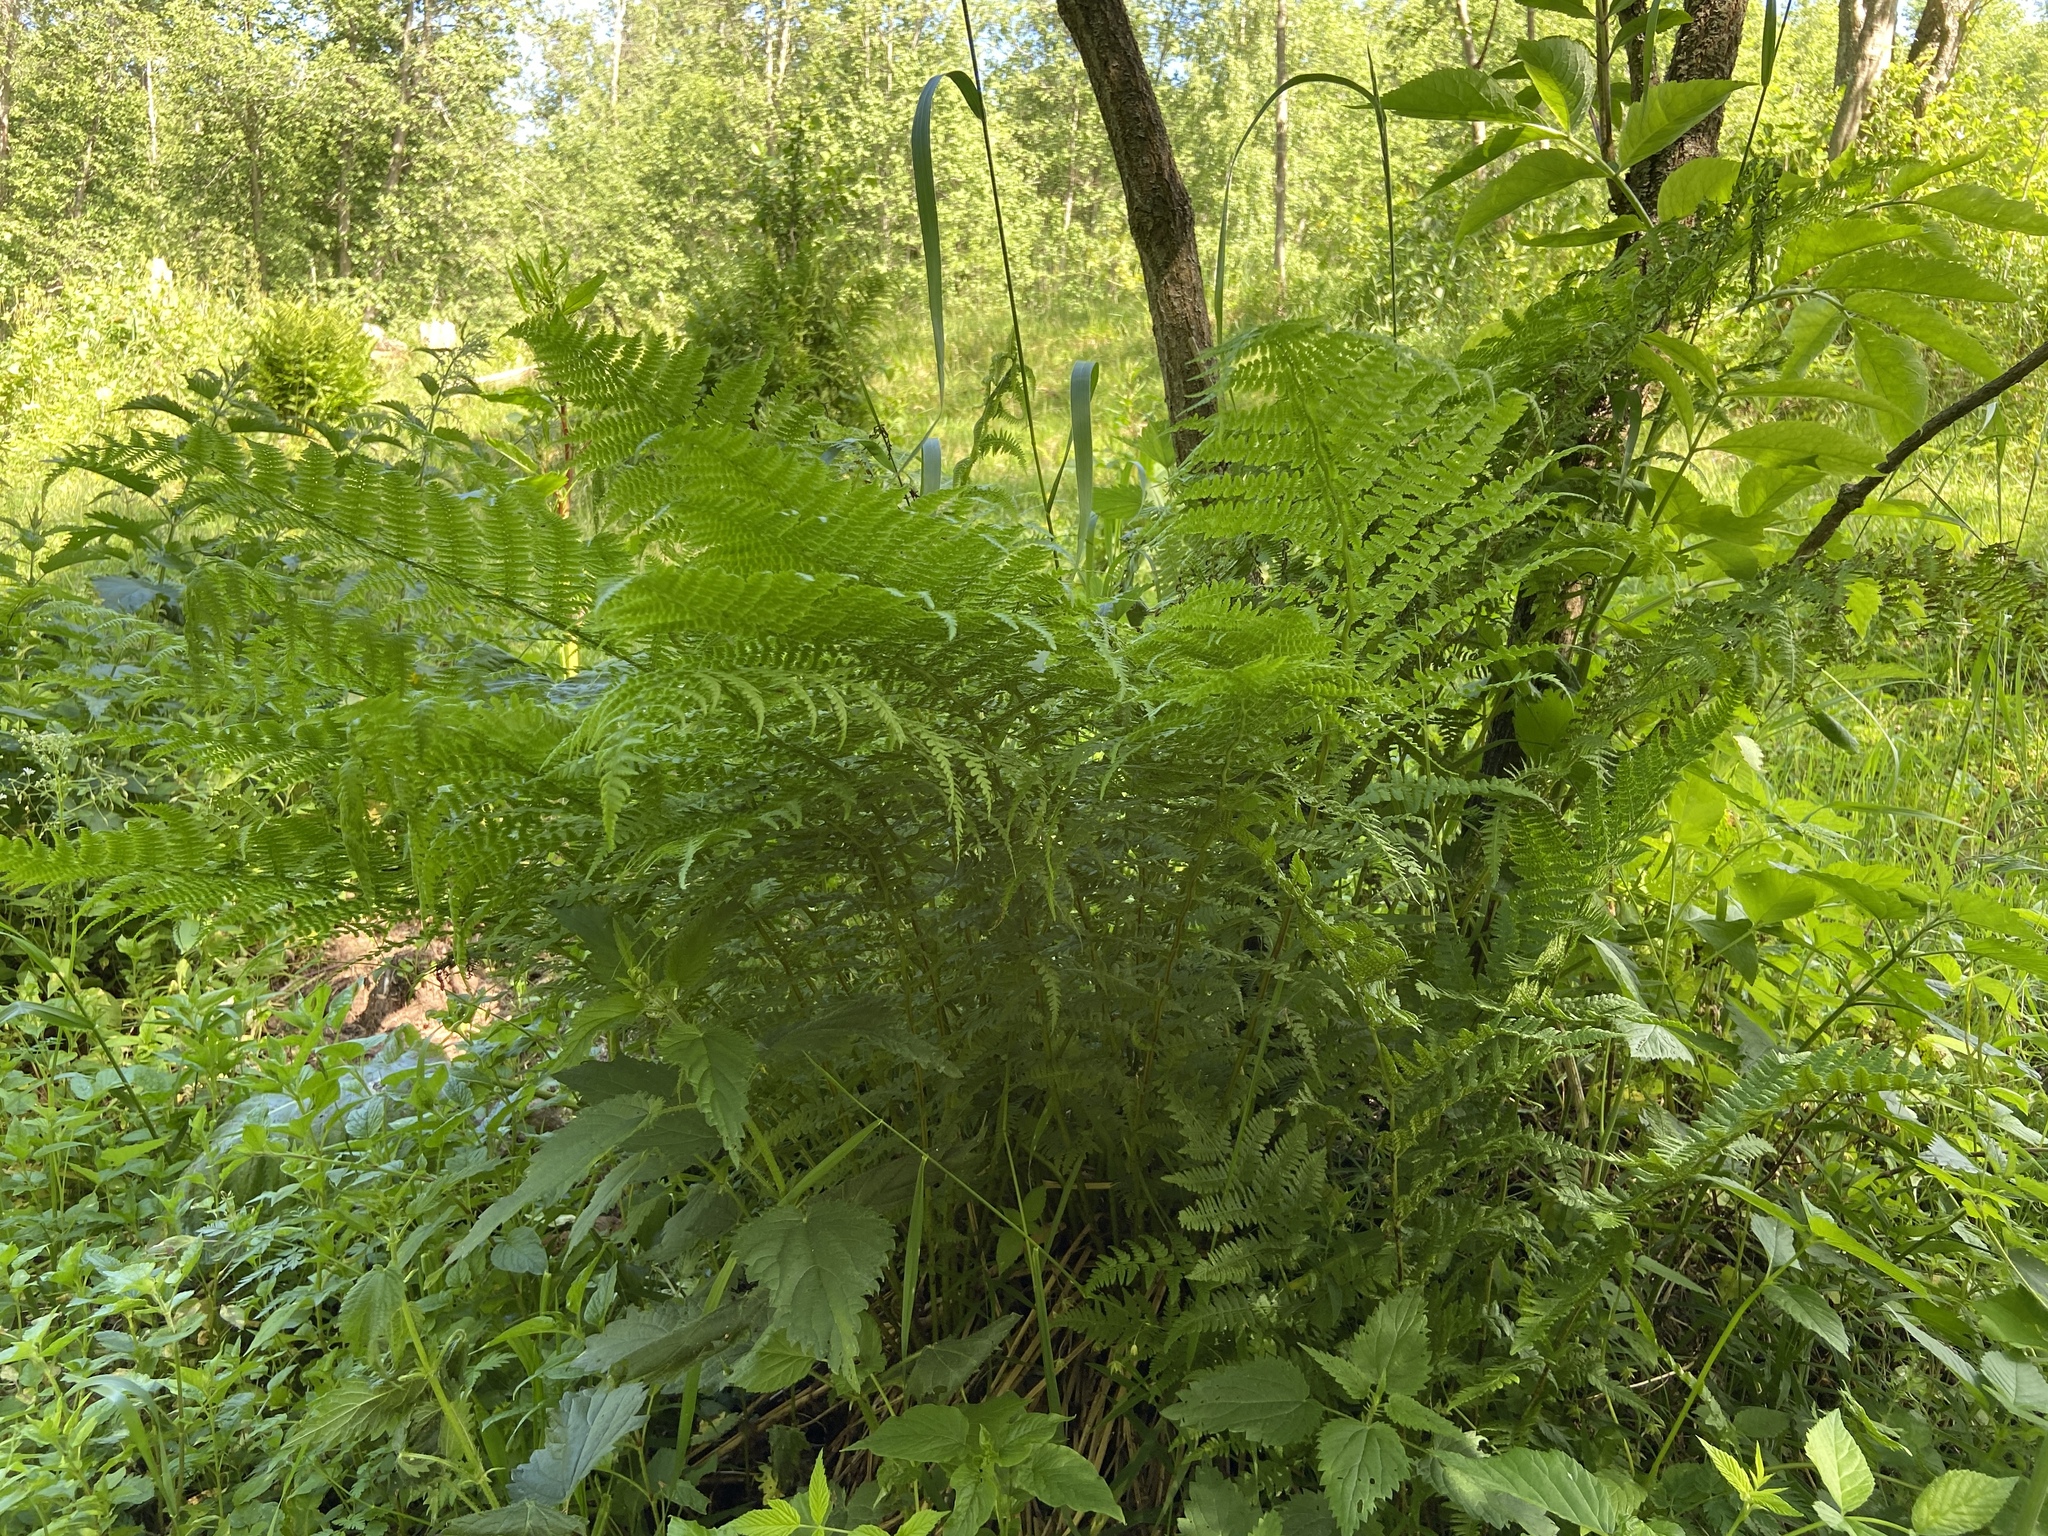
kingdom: Plantae
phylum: Tracheophyta
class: Polypodiopsida
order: Polypodiales
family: Athyriaceae
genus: Athyrium
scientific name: Athyrium filix-femina
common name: Lady fern
